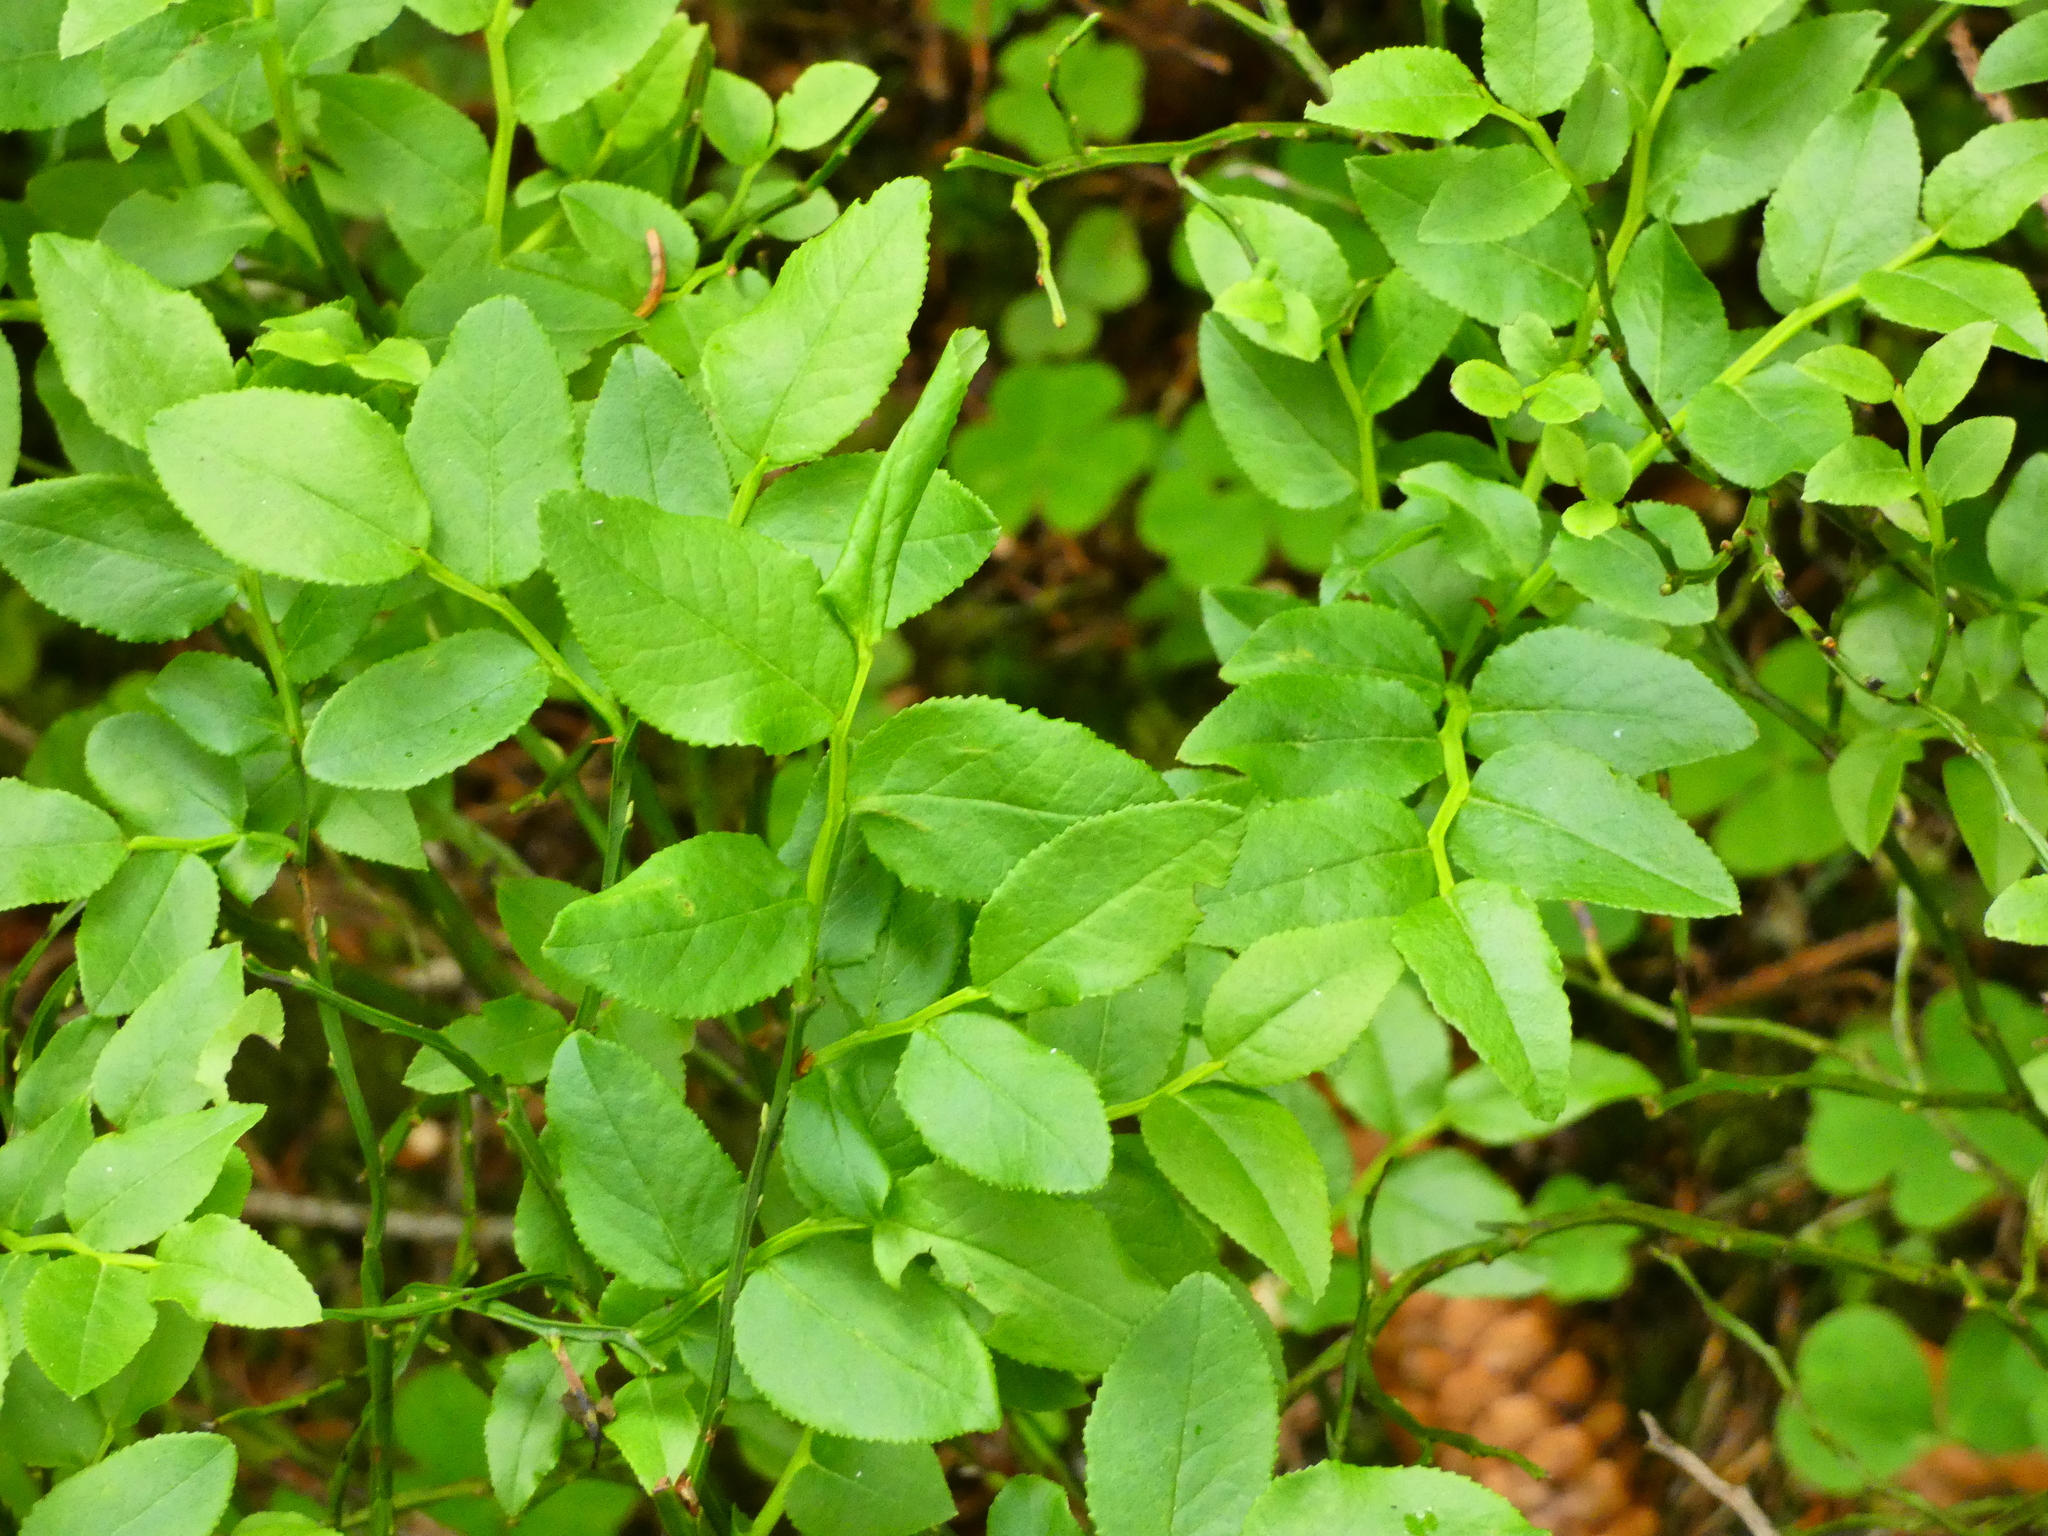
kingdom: Plantae
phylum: Tracheophyta
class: Magnoliopsida
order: Ericales
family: Ericaceae
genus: Vaccinium
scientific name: Vaccinium myrtillus
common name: Bilberry
